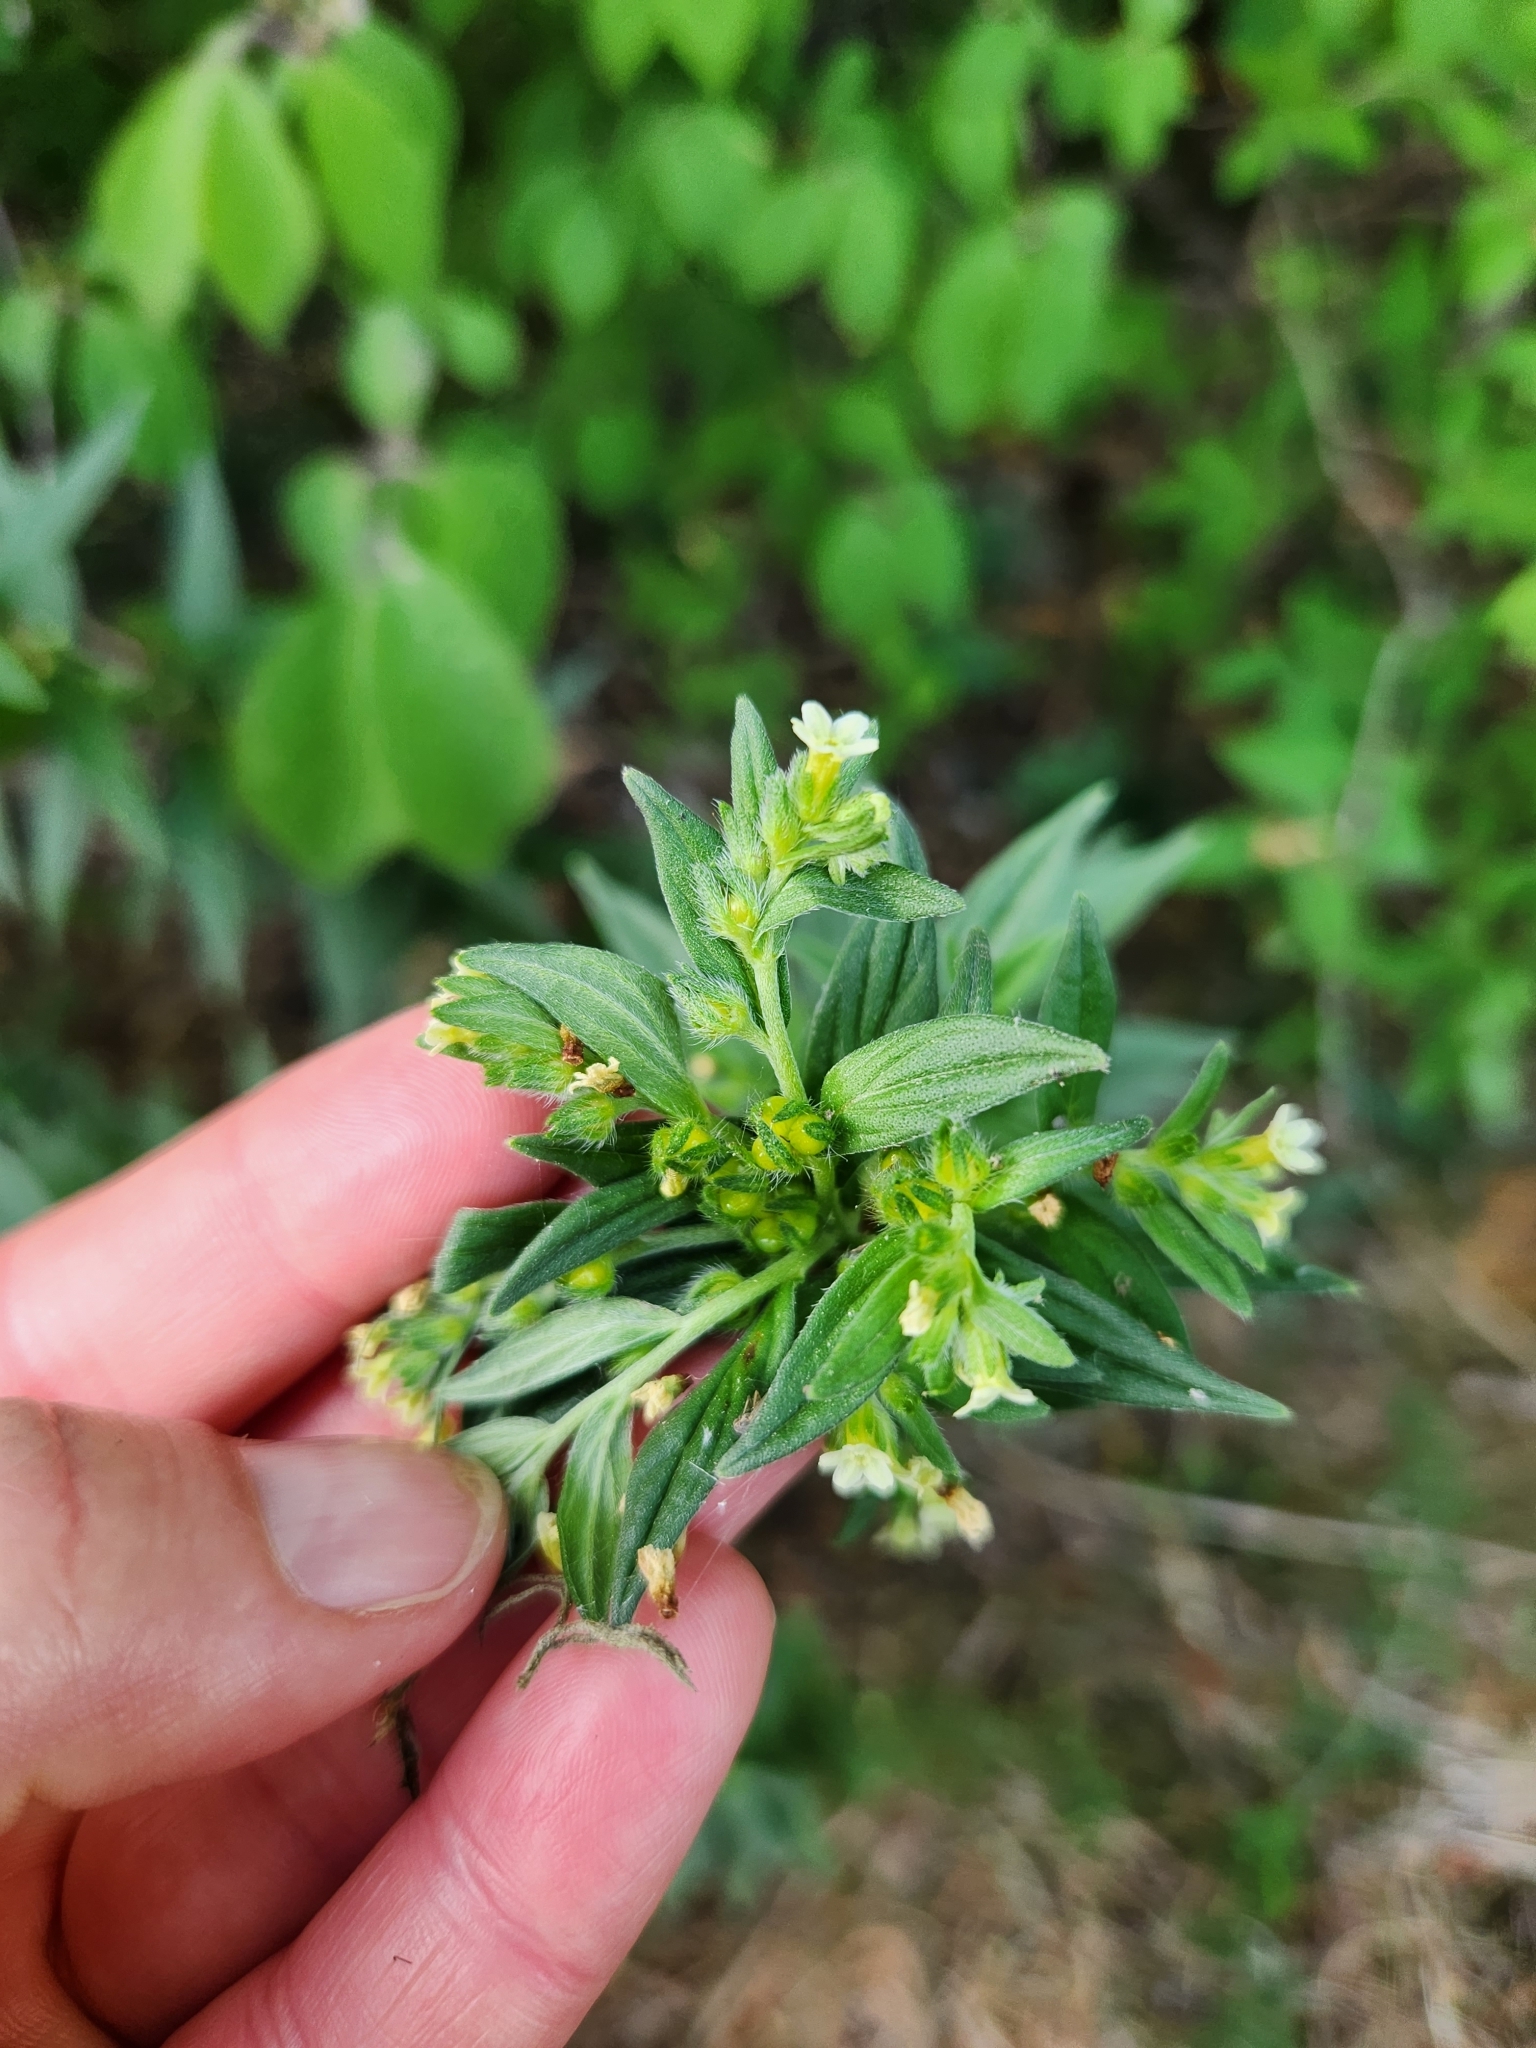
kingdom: Plantae
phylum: Tracheophyta
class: Magnoliopsida
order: Boraginales
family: Boraginaceae
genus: Lithospermum
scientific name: Lithospermum officinale
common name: Common gromwell
